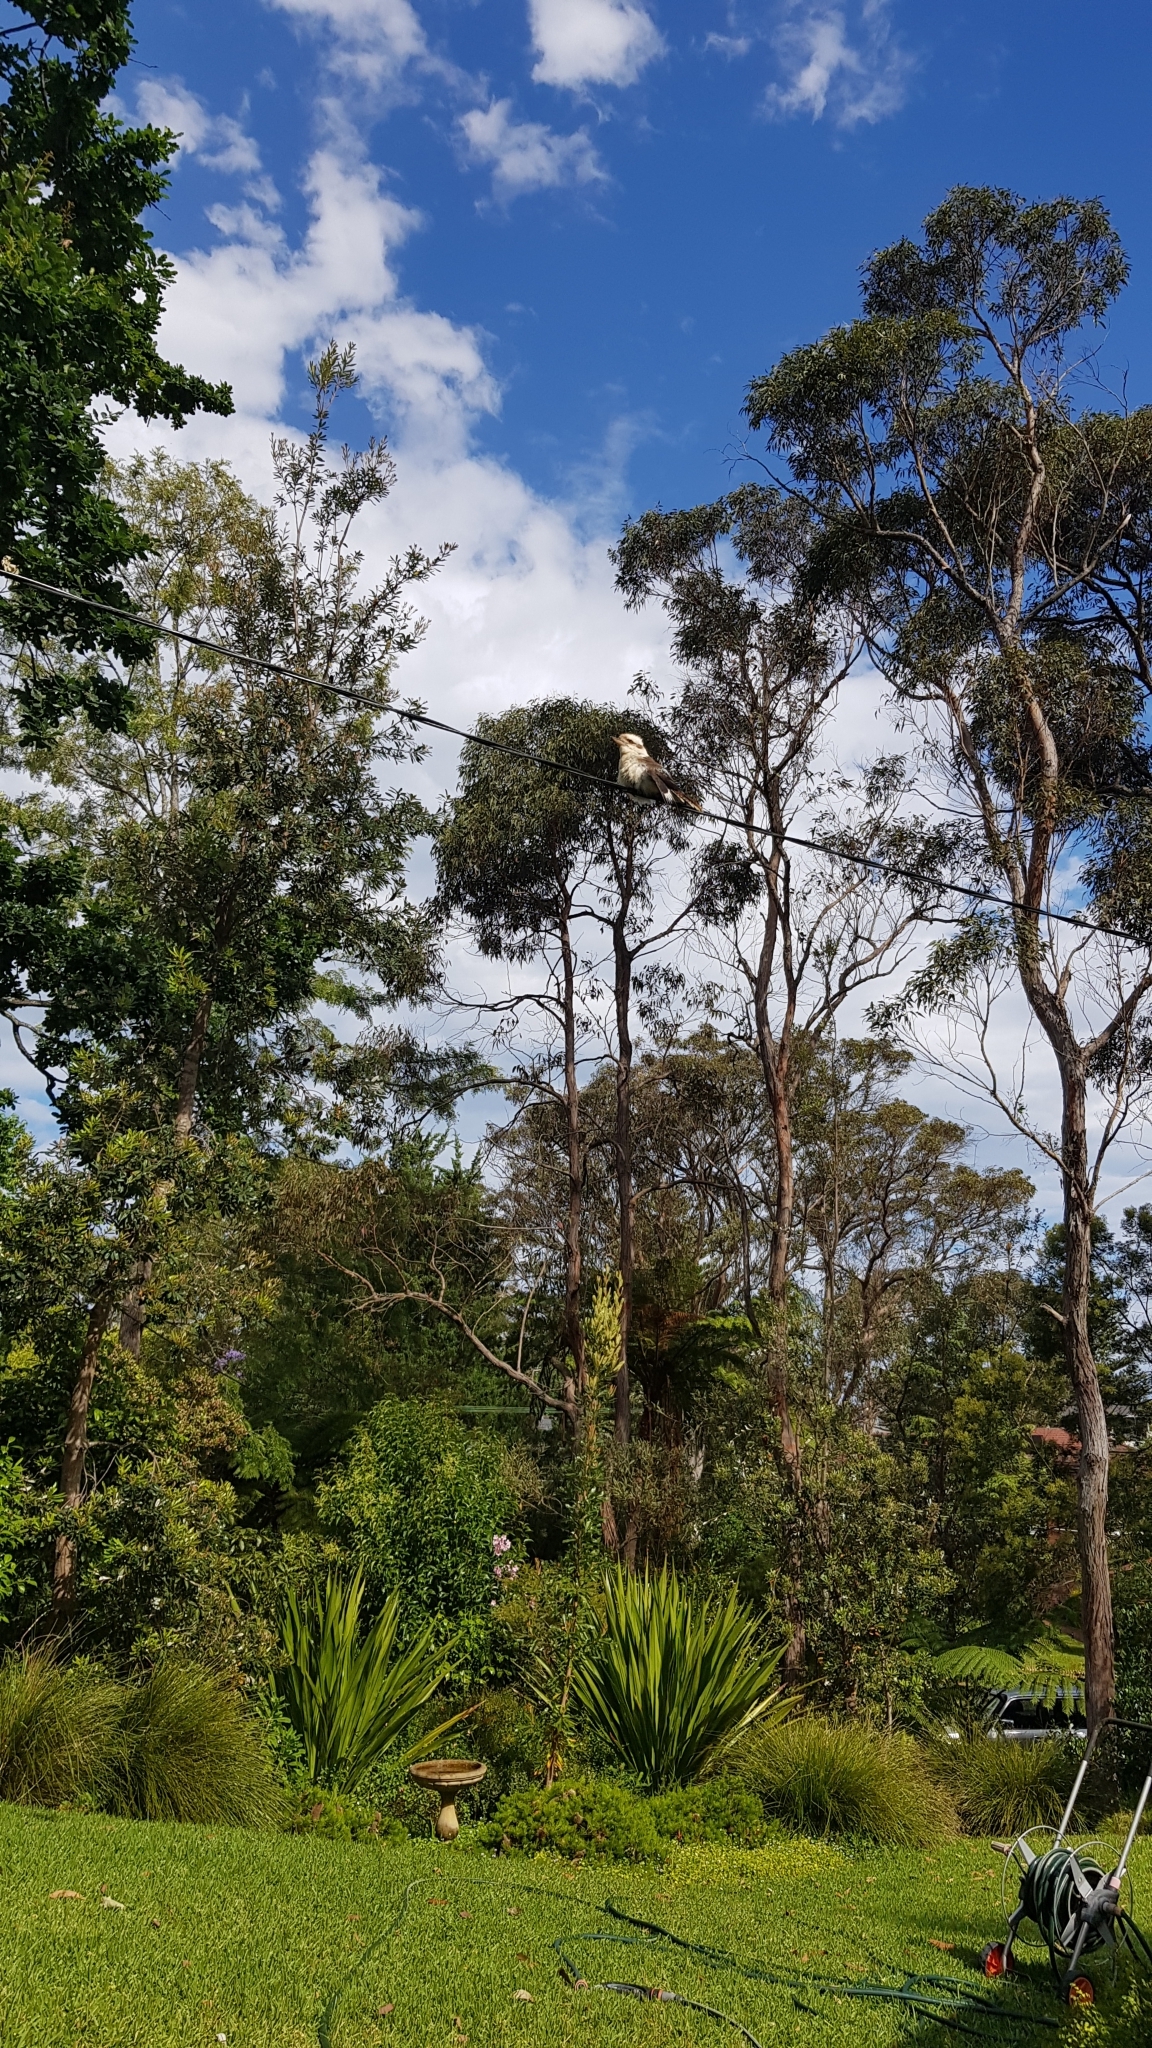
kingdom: Animalia
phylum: Chordata
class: Aves
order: Coraciiformes
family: Alcedinidae
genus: Dacelo
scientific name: Dacelo novaeguineae
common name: Laughing kookaburra
